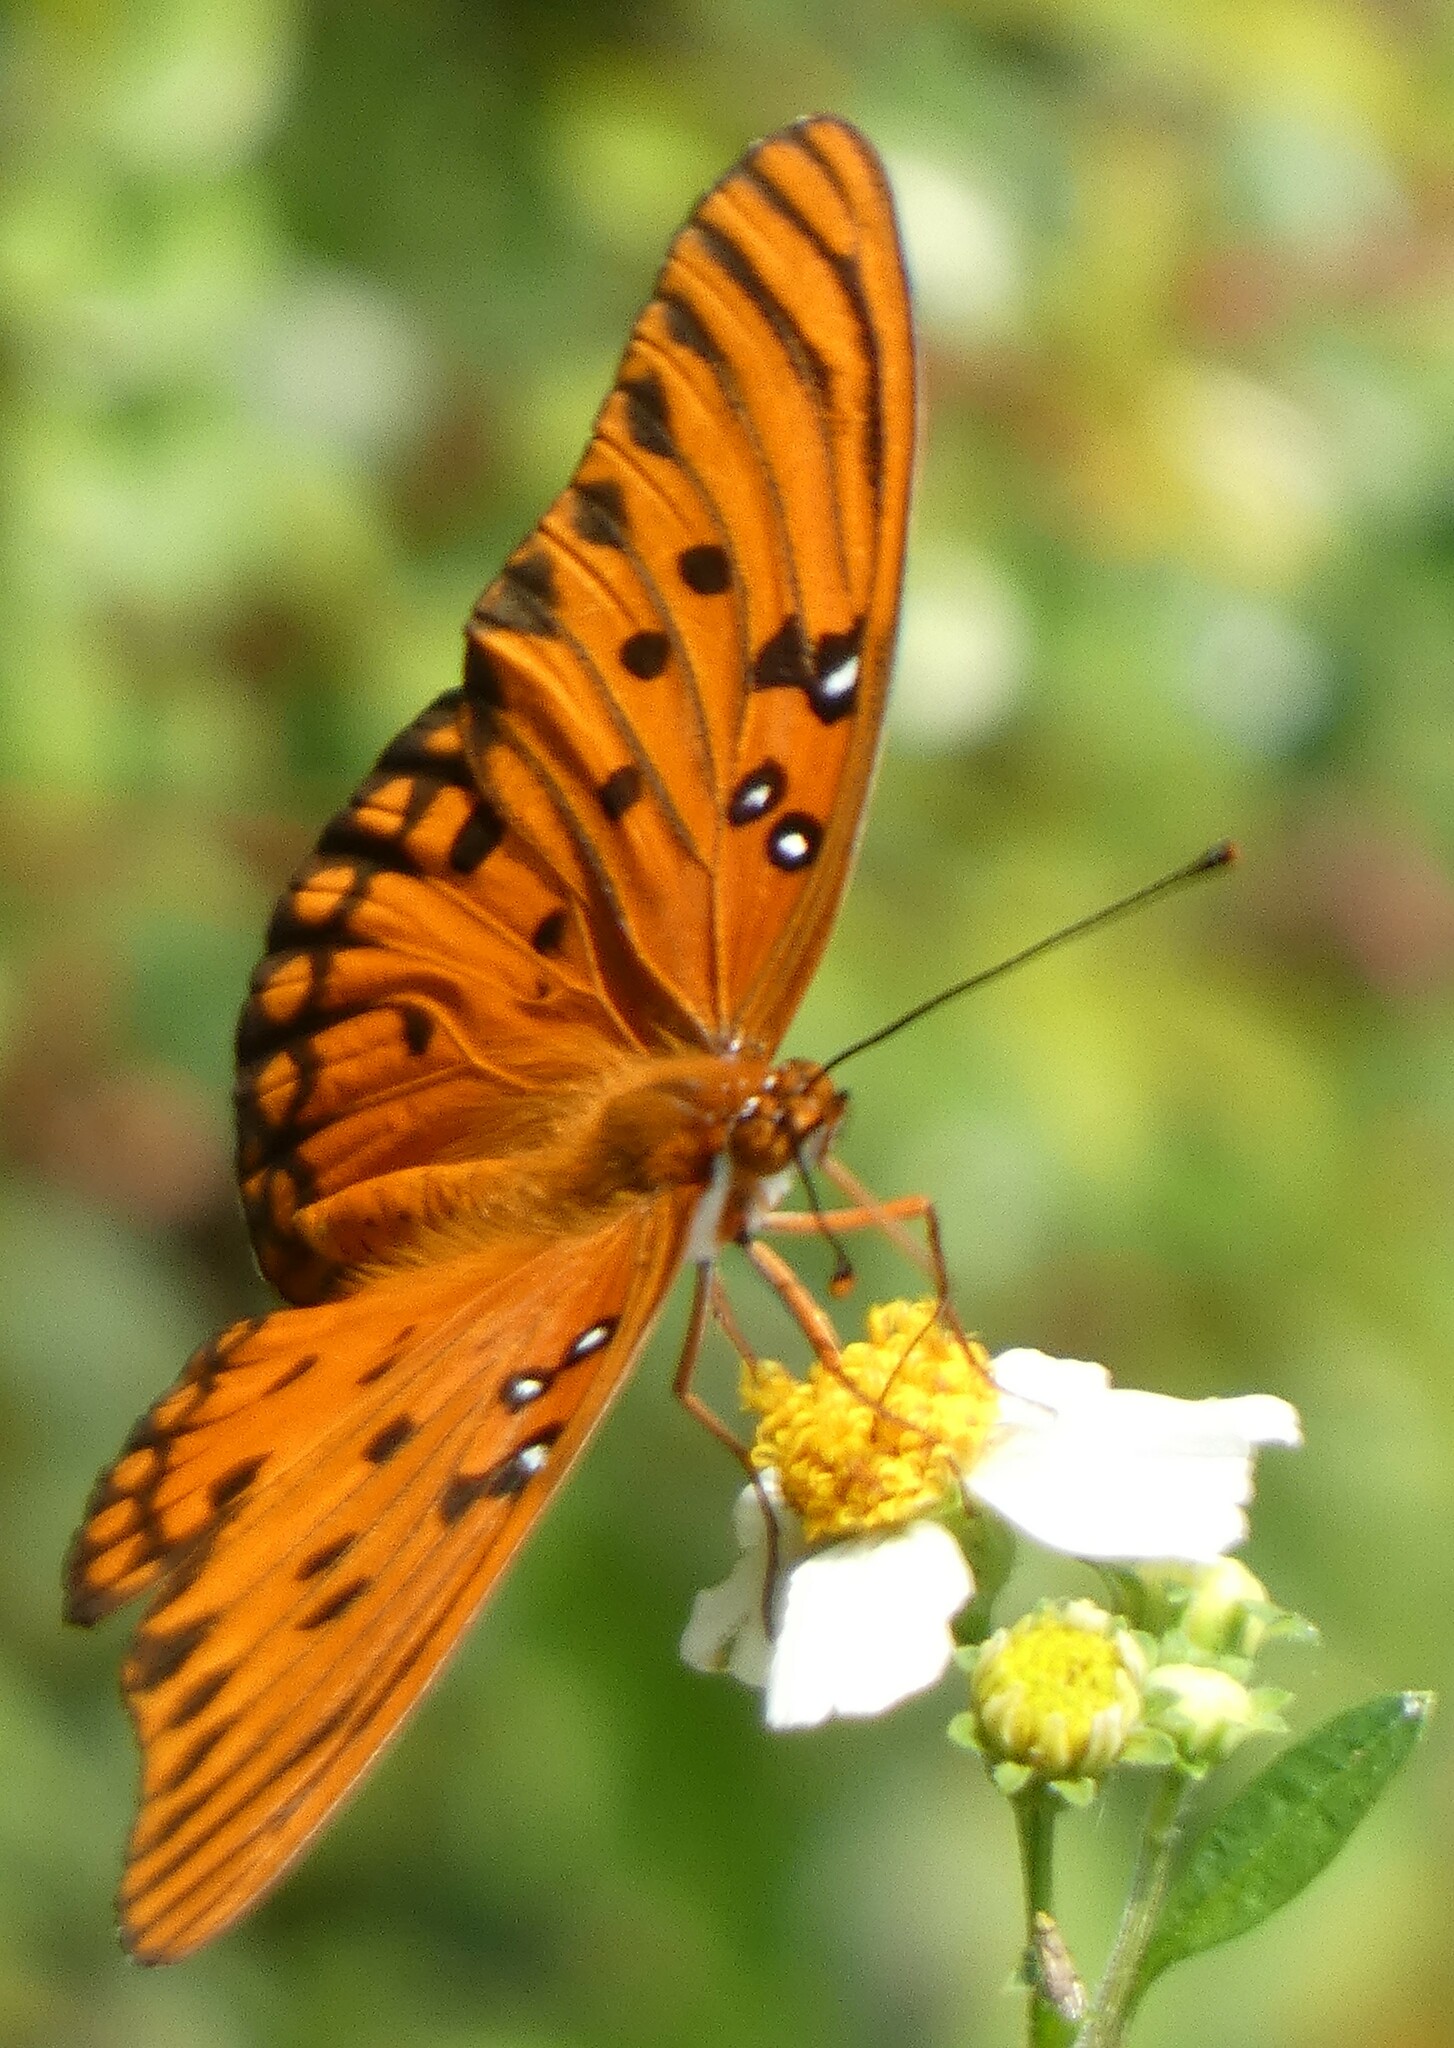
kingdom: Animalia
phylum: Arthropoda
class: Insecta
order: Lepidoptera
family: Nymphalidae
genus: Dione
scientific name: Dione vanillae
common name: Gulf fritillary
